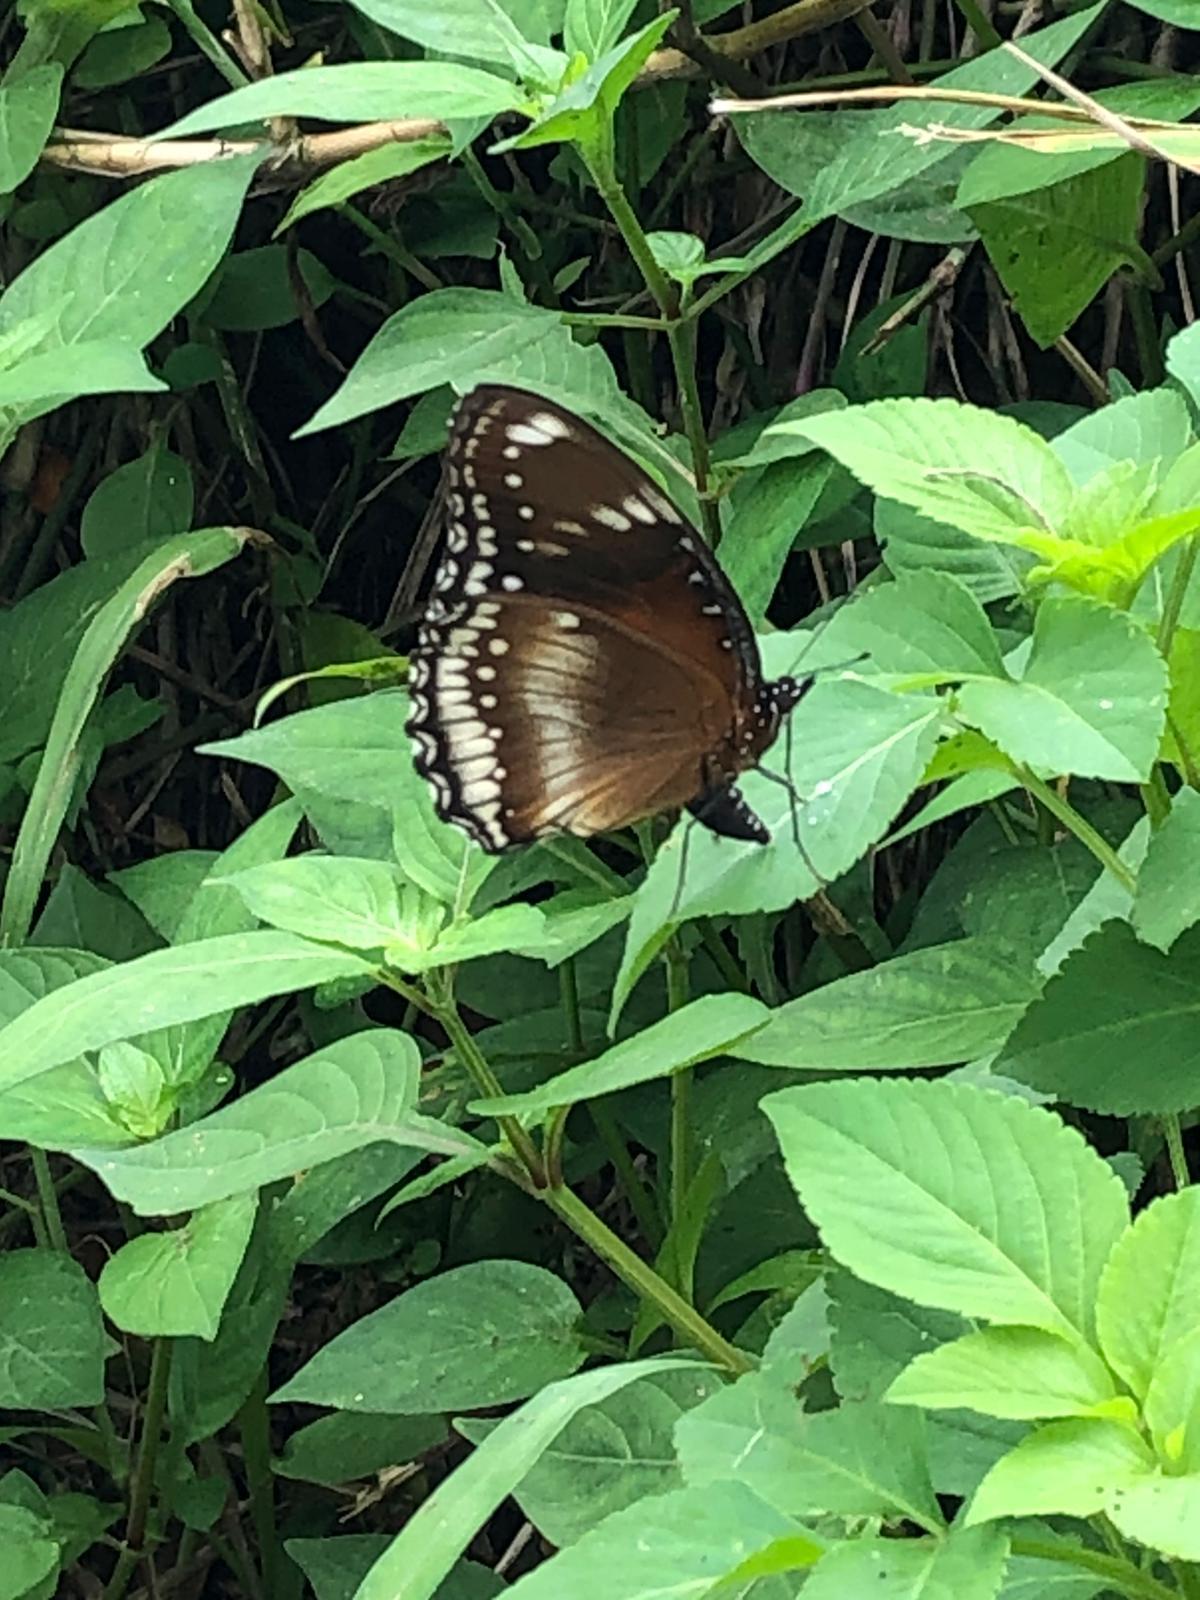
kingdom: Animalia
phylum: Arthropoda
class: Insecta
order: Lepidoptera
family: Nymphalidae
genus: Hypolimnas
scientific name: Hypolimnas bolina
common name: Great eggfly
